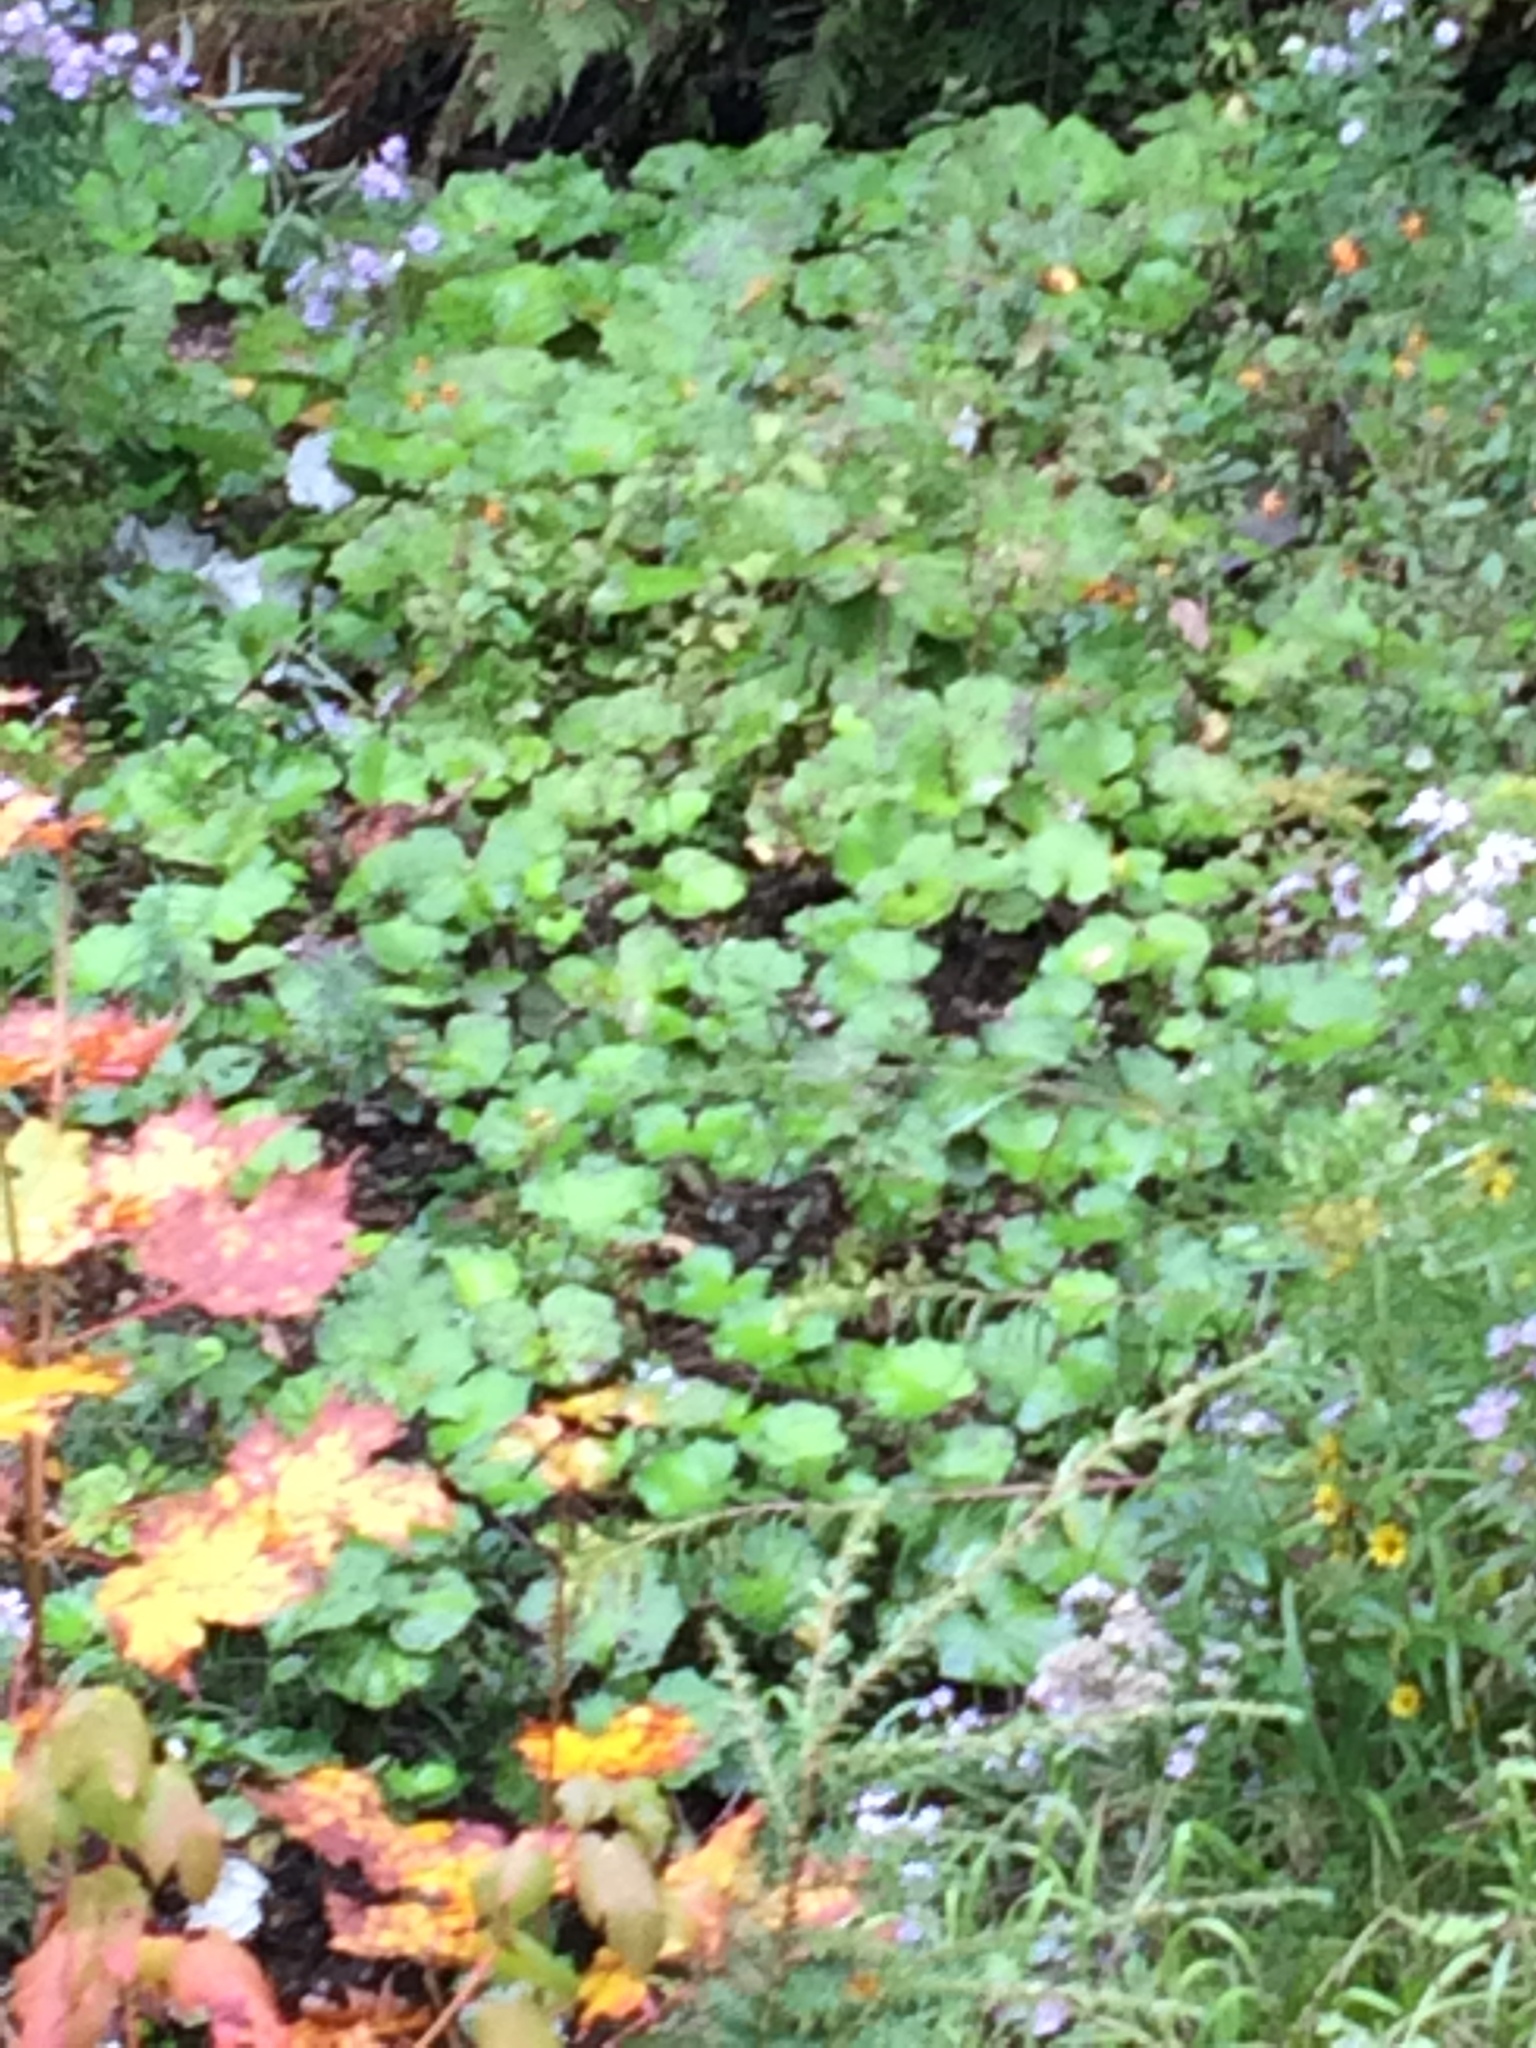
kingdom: Plantae
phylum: Tracheophyta
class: Magnoliopsida
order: Asterales
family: Asteraceae
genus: Tussilago
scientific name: Tussilago farfara
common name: Coltsfoot
